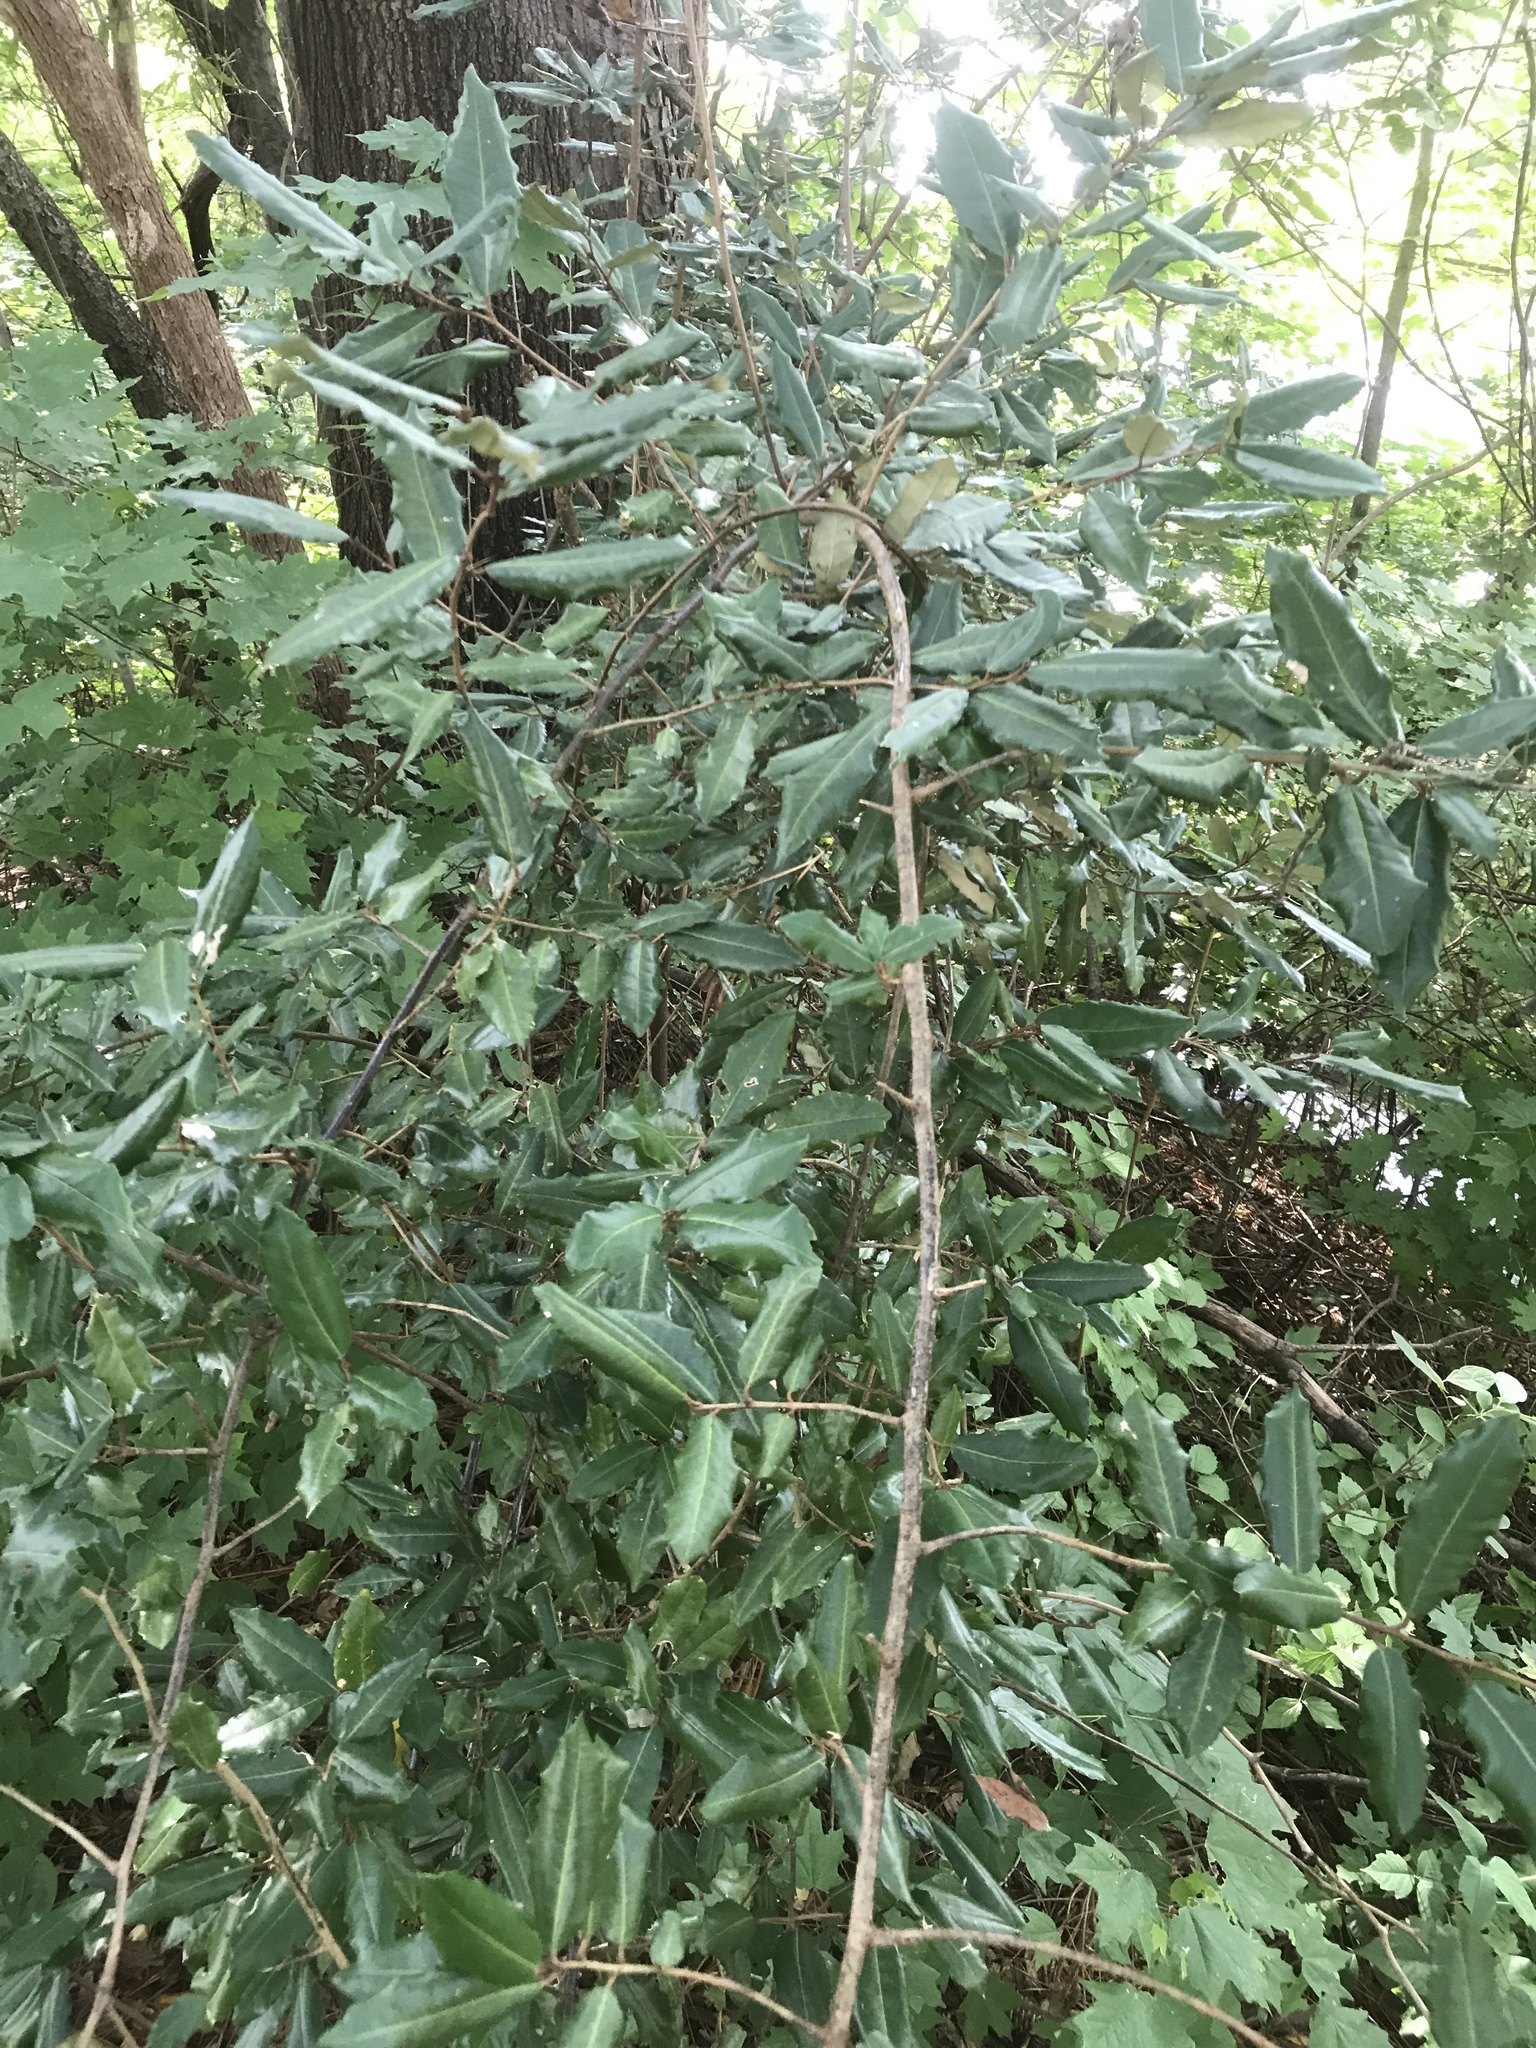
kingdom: Plantae
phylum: Tracheophyta
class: Magnoliopsida
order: Rosales
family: Elaeagnaceae
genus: Elaeagnus
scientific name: Elaeagnus pungens
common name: Spiny oleaster
